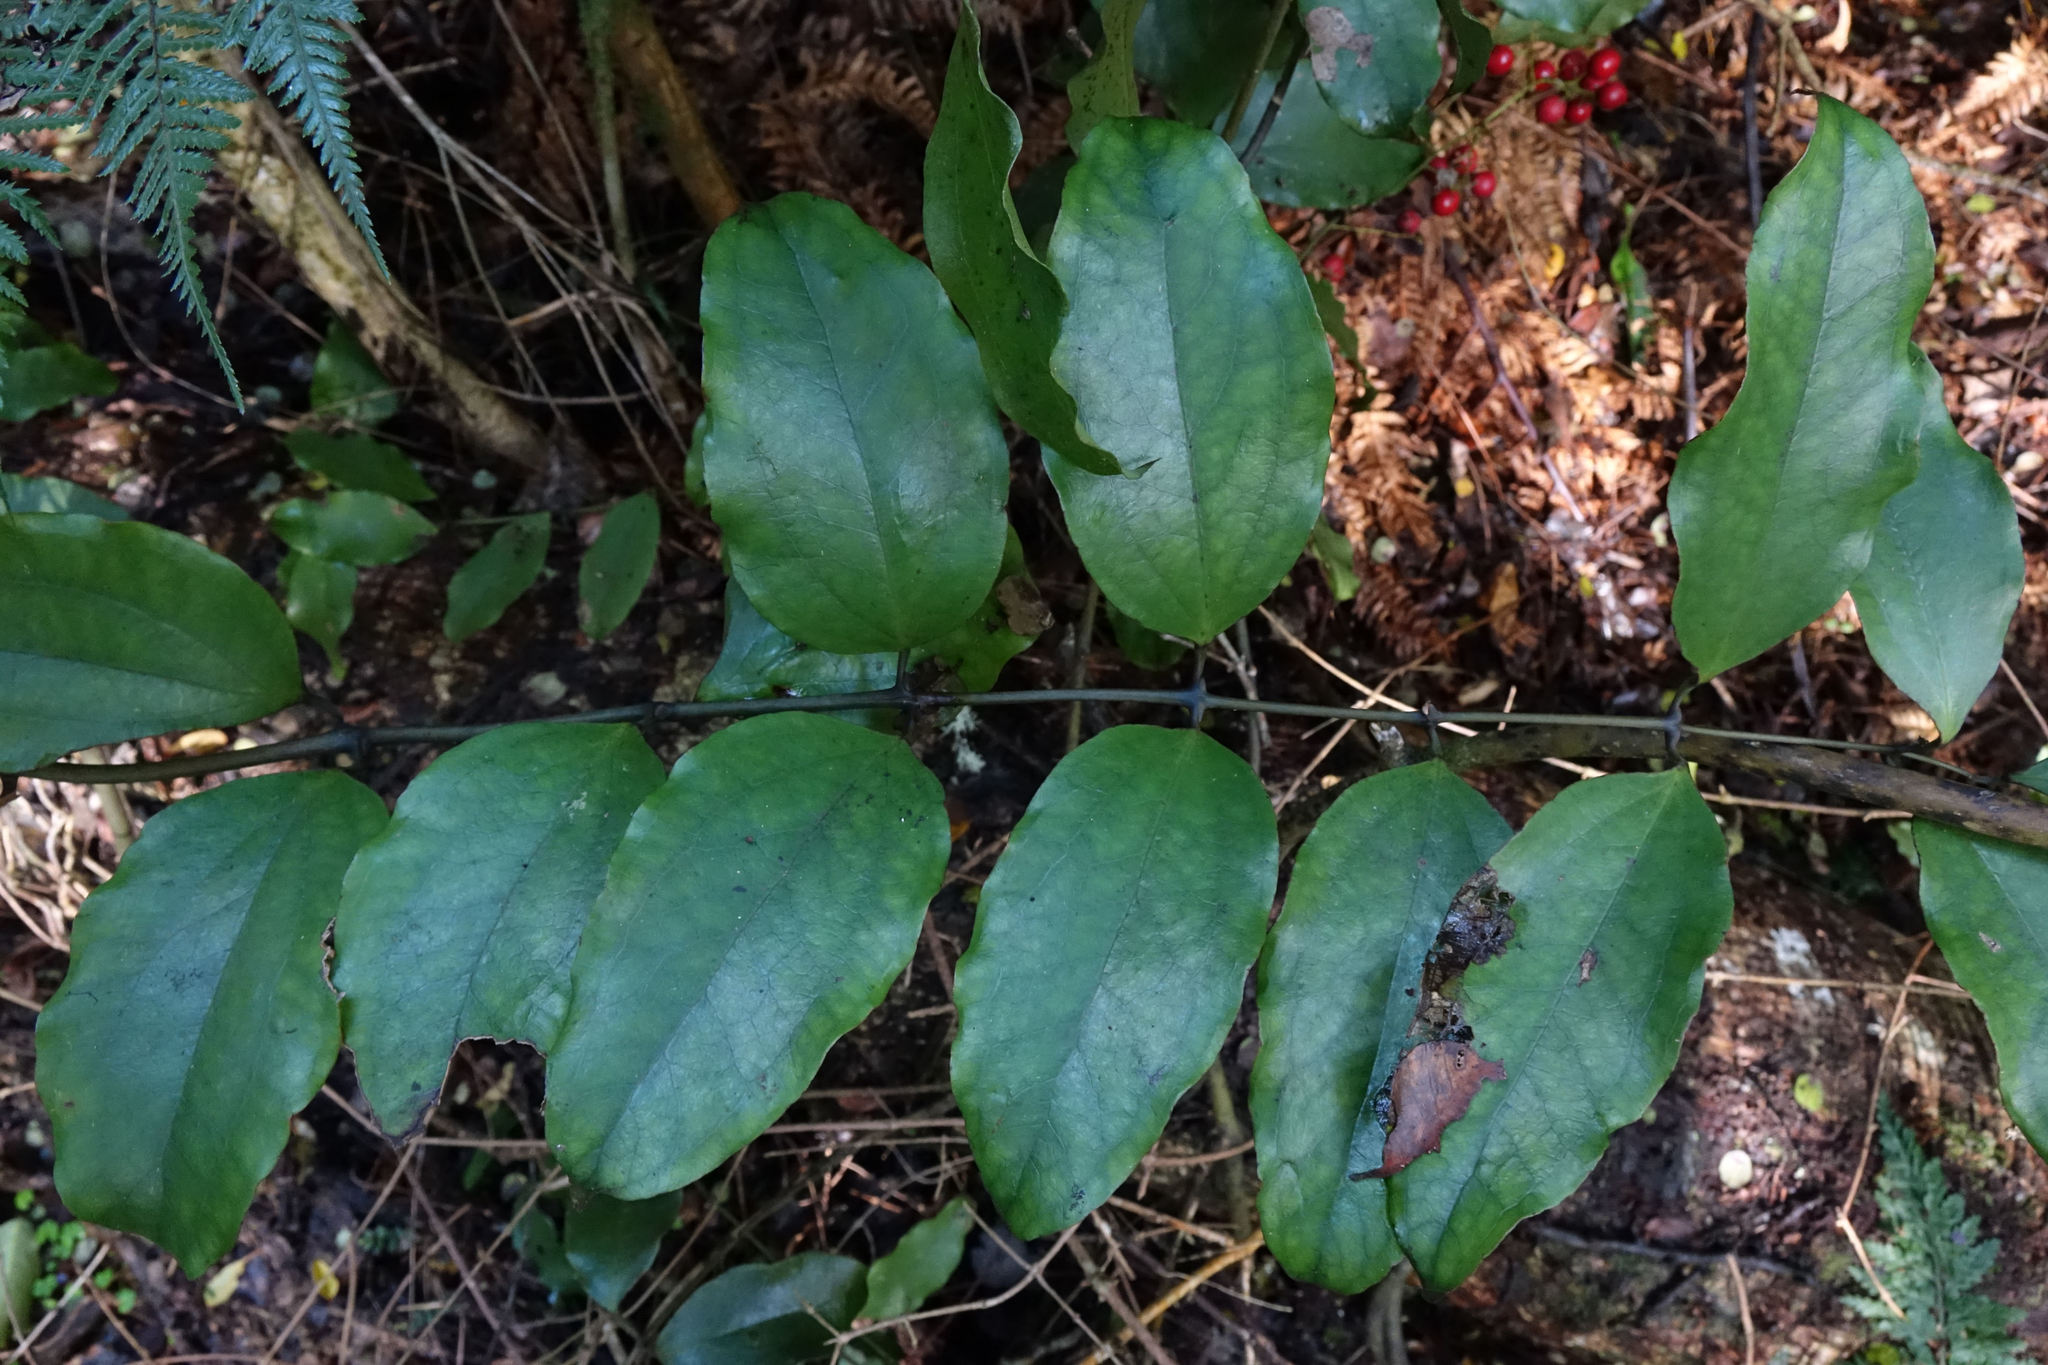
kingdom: Plantae
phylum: Tracheophyta
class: Liliopsida
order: Liliales
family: Ripogonaceae
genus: Ripogonum
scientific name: Ripogonum scandens
